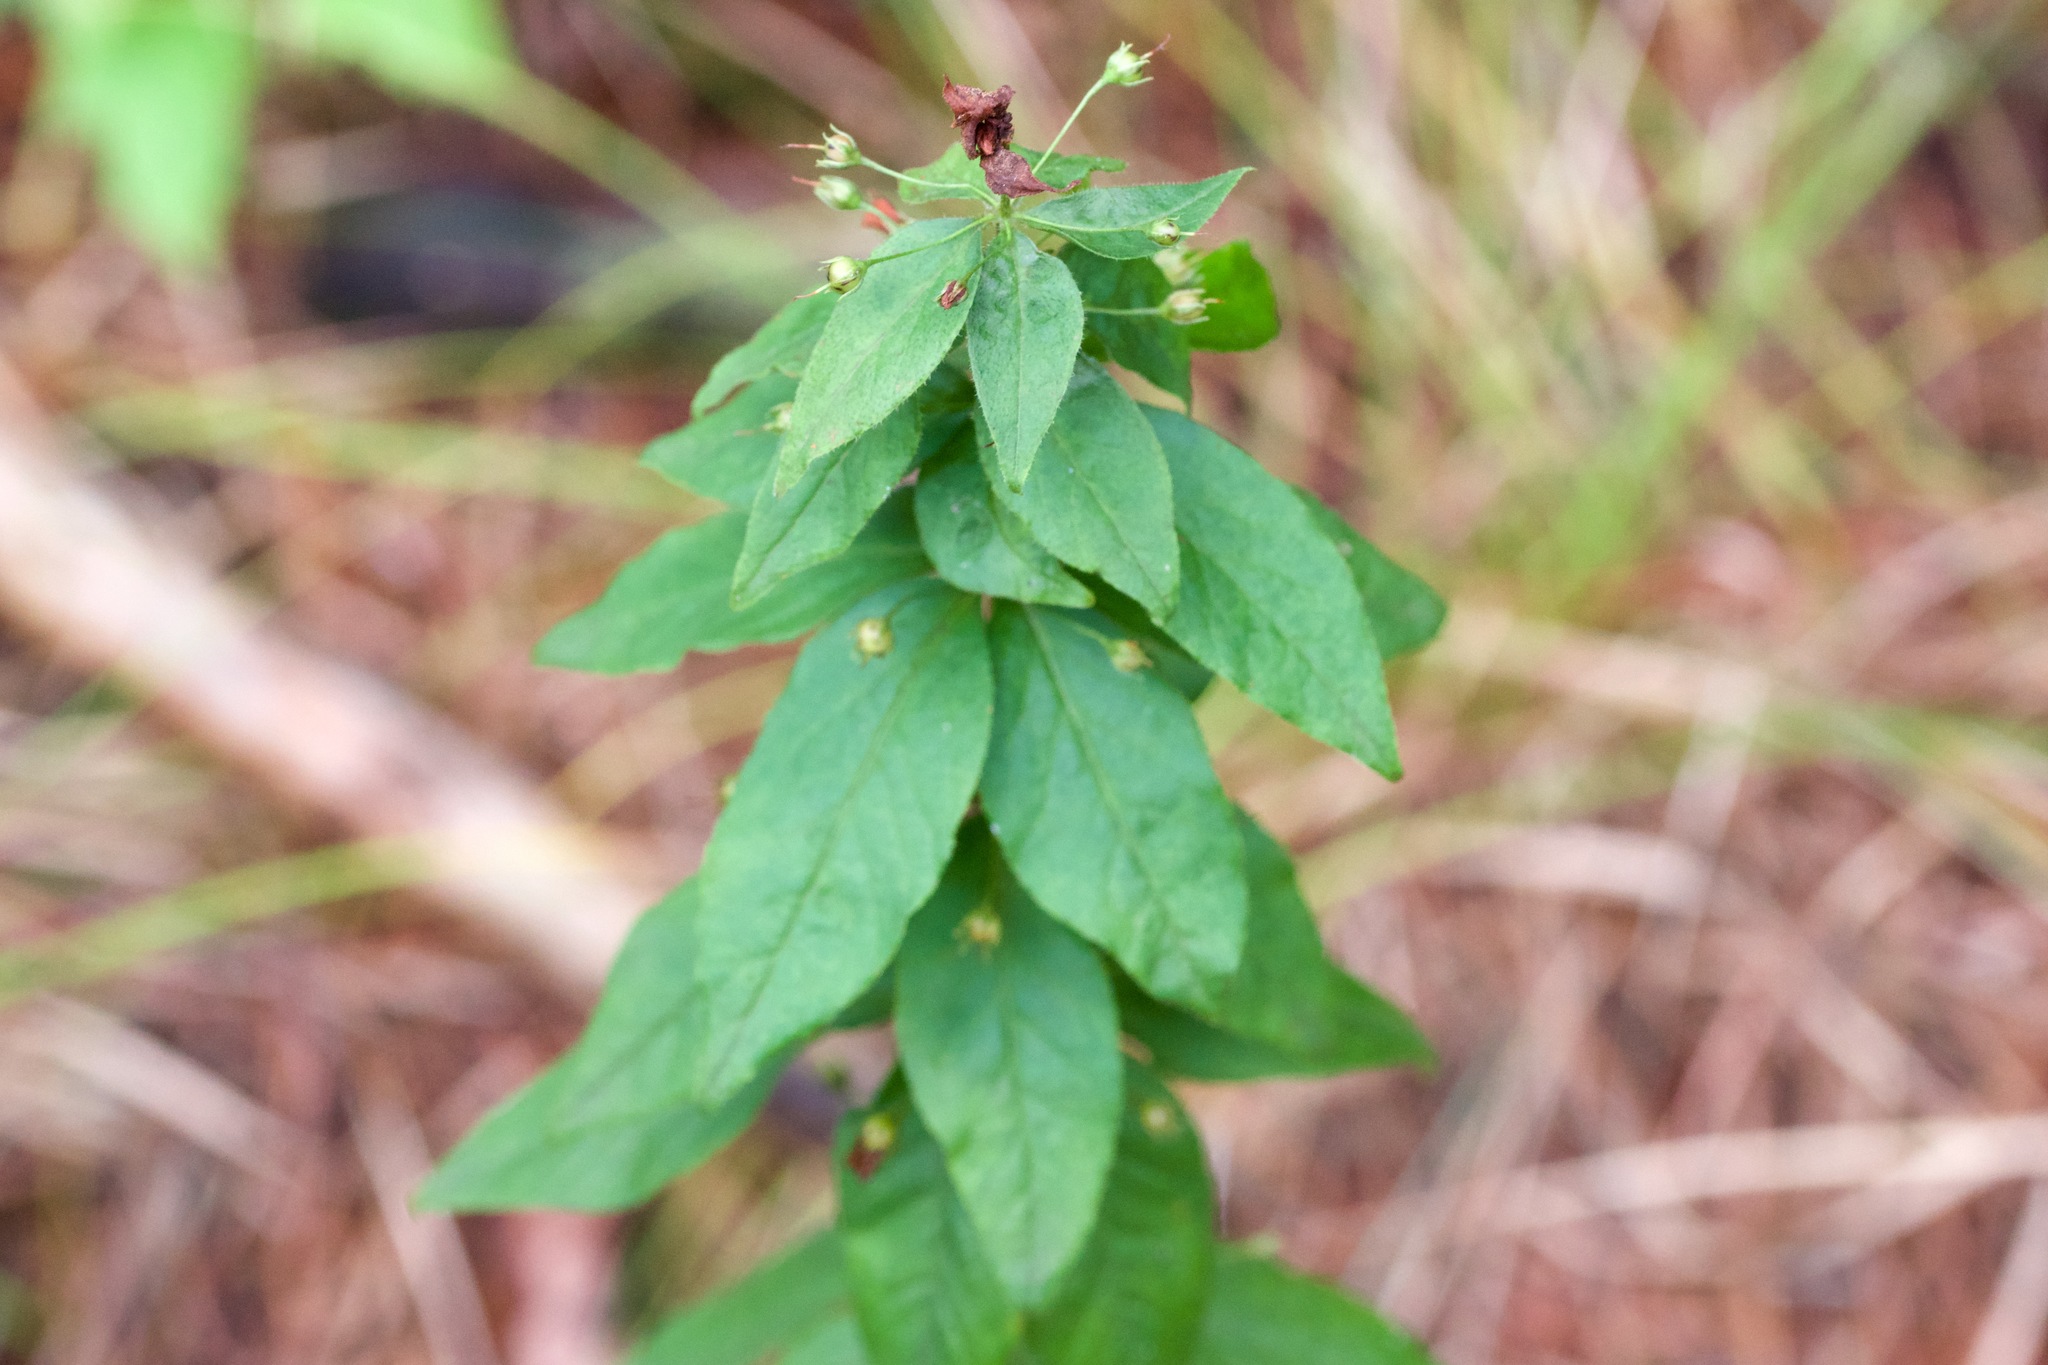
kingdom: Plantae
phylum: Tracheophyta
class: Magnoliopsida
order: Ericales
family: Primulaceae
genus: Lysimachia
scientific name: Lysimachia quadrifolia
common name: Whorled loosestrife
